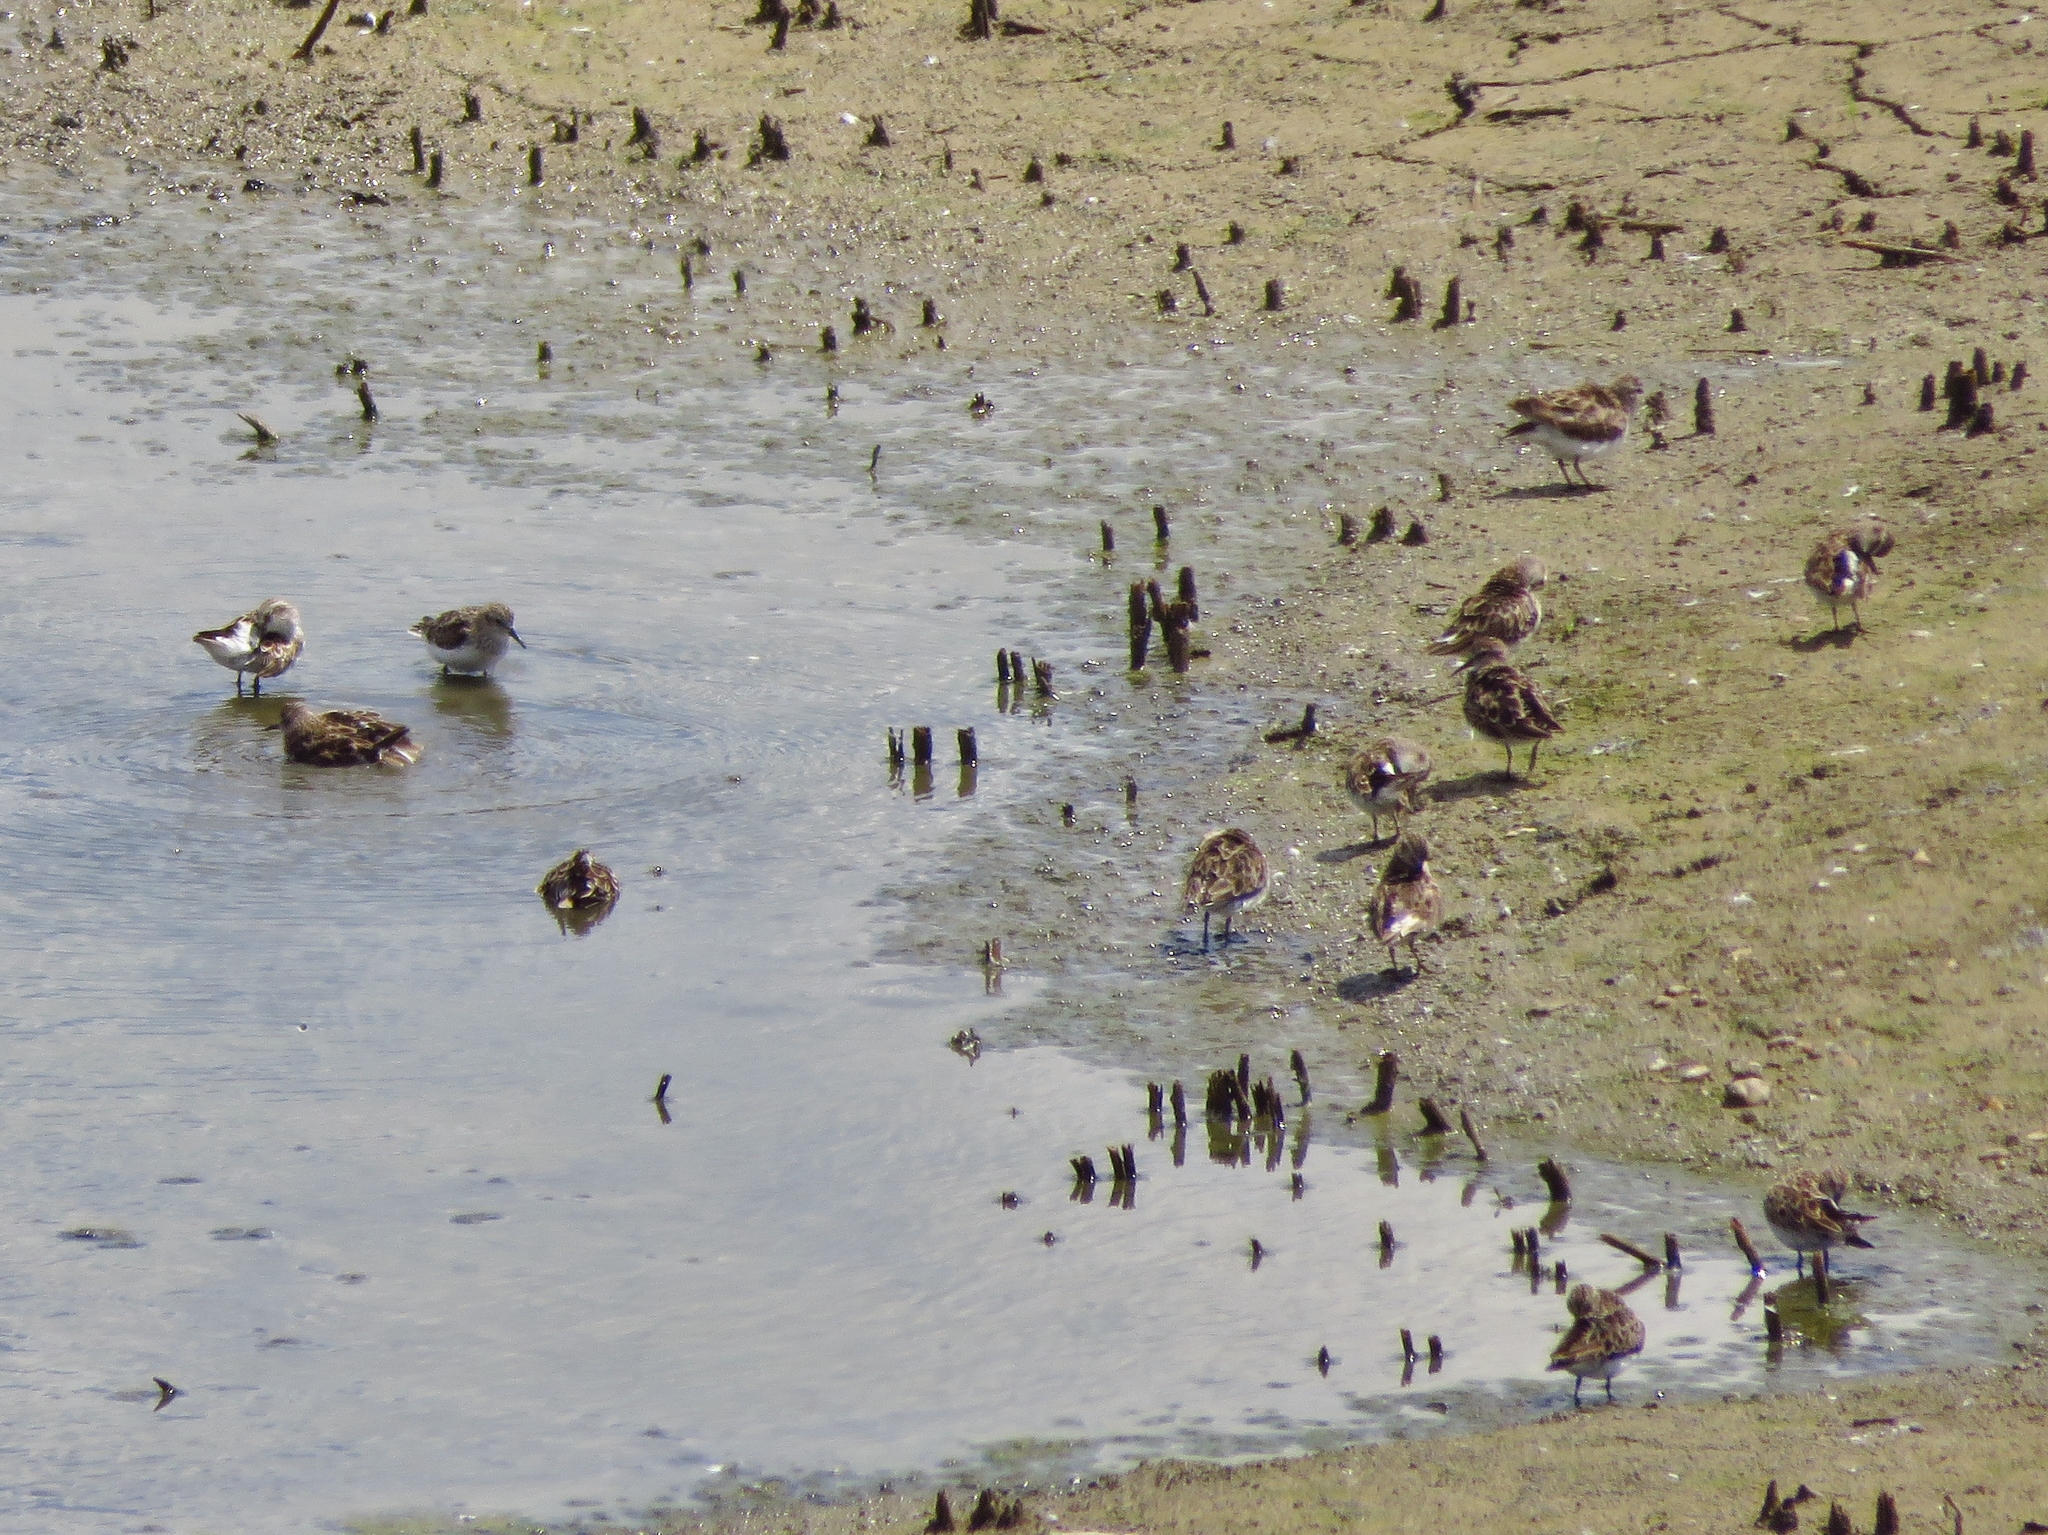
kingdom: Animalia
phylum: Chordata
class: Aves
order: Charadriiformes
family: Scolopacidae
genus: Calidris
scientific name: Calidris minutilla
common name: Least sandpiper
